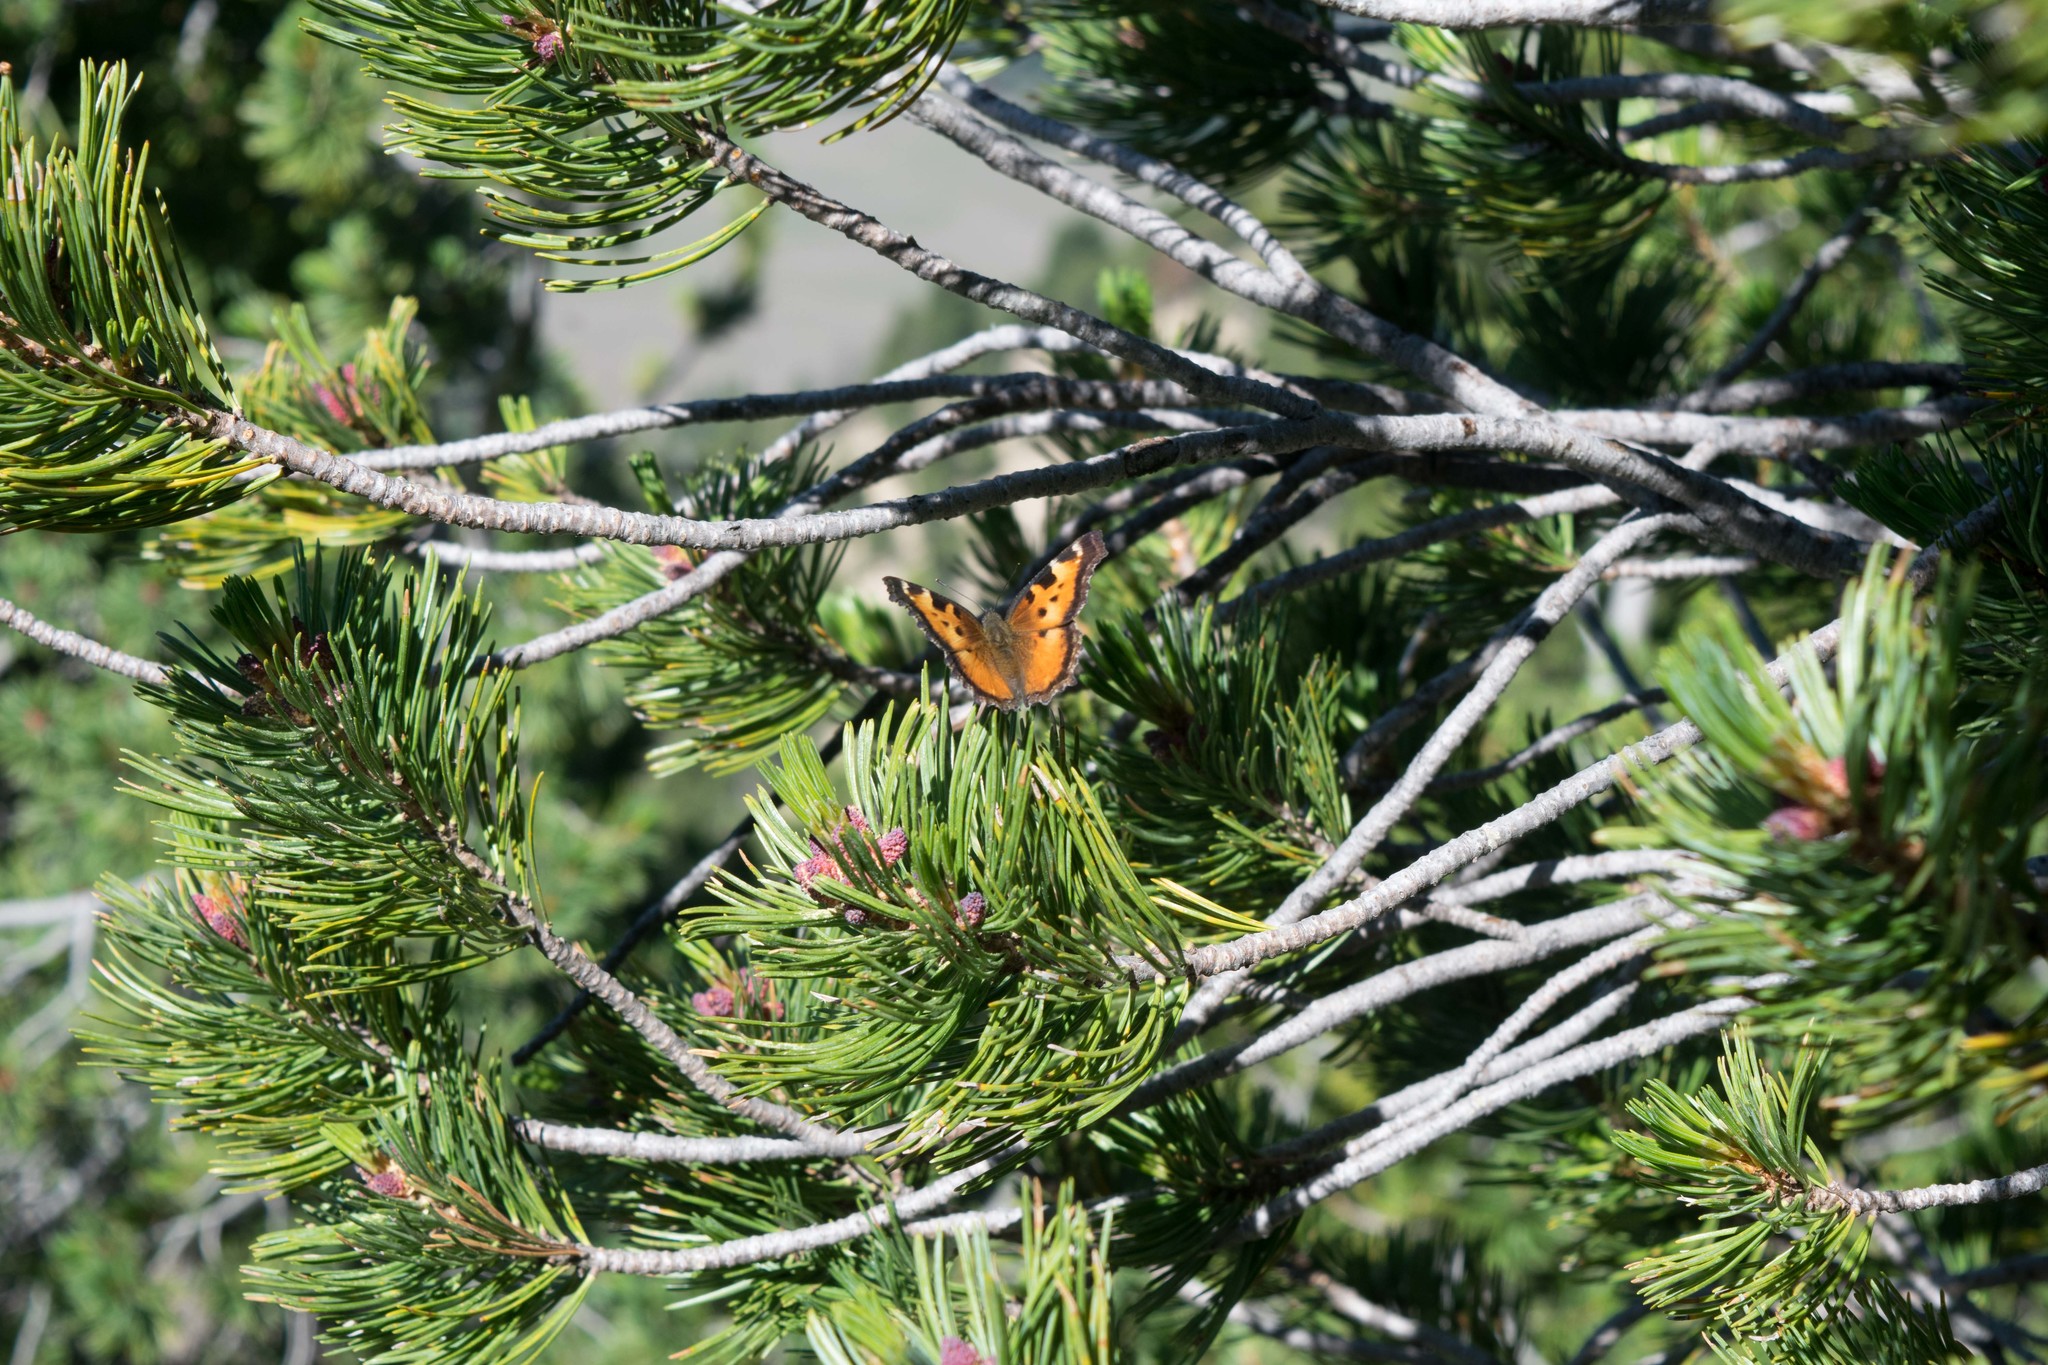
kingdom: Plantae
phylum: Tracheophyta
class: Pinopsida
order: Pinales
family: Pinaceae
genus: Pinus
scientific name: Pinus albicaulis
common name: Whitebark pine
